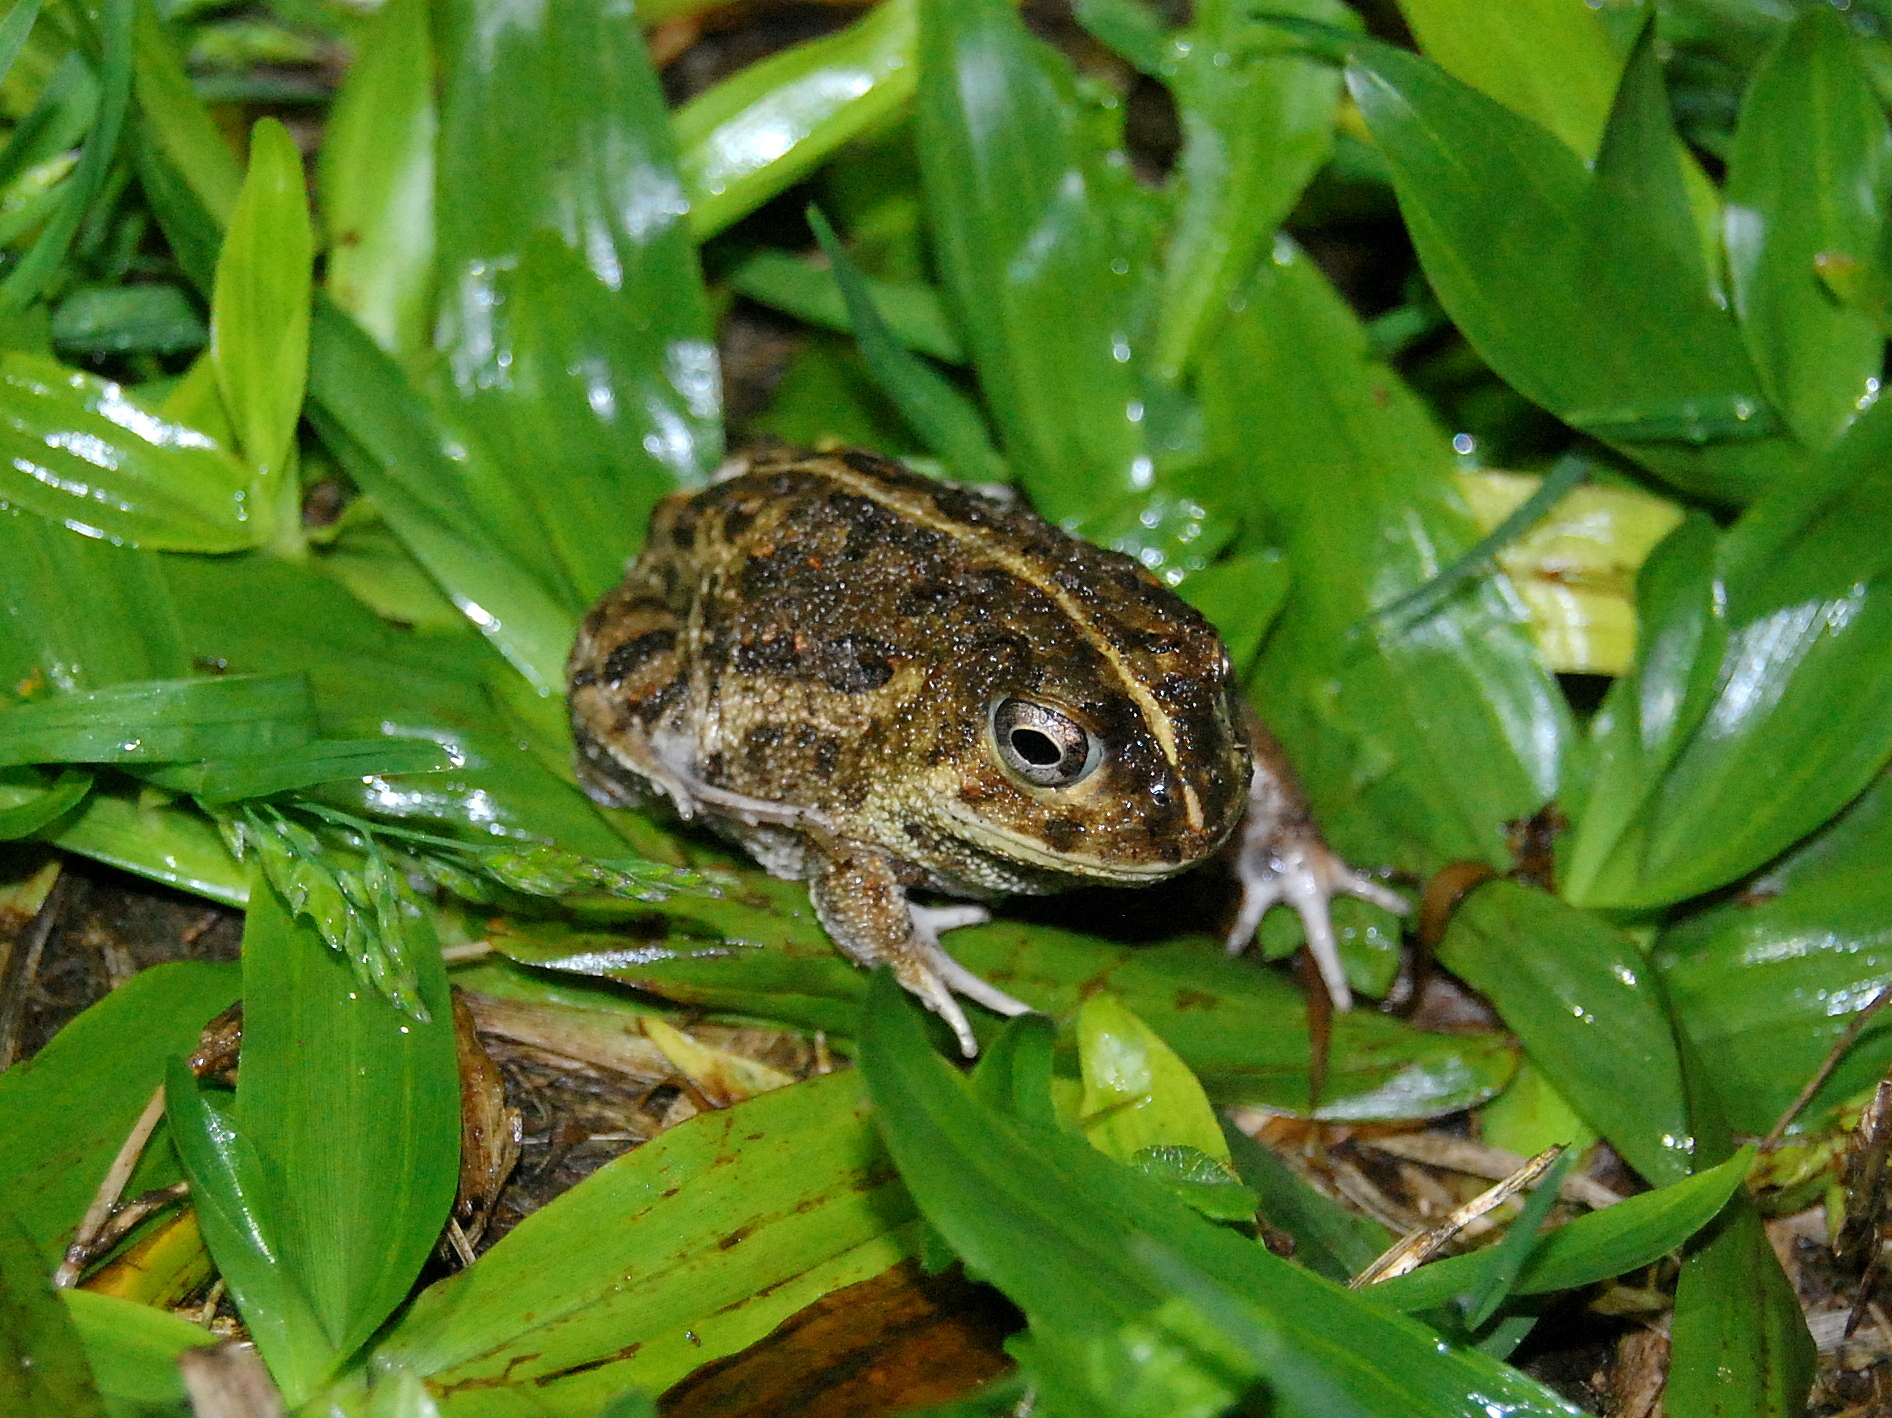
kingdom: Animalia
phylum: Chordata
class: Amphibia
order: Anura
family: Odontophrynidae
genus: Odontophrynus
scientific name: Odontophrynus
